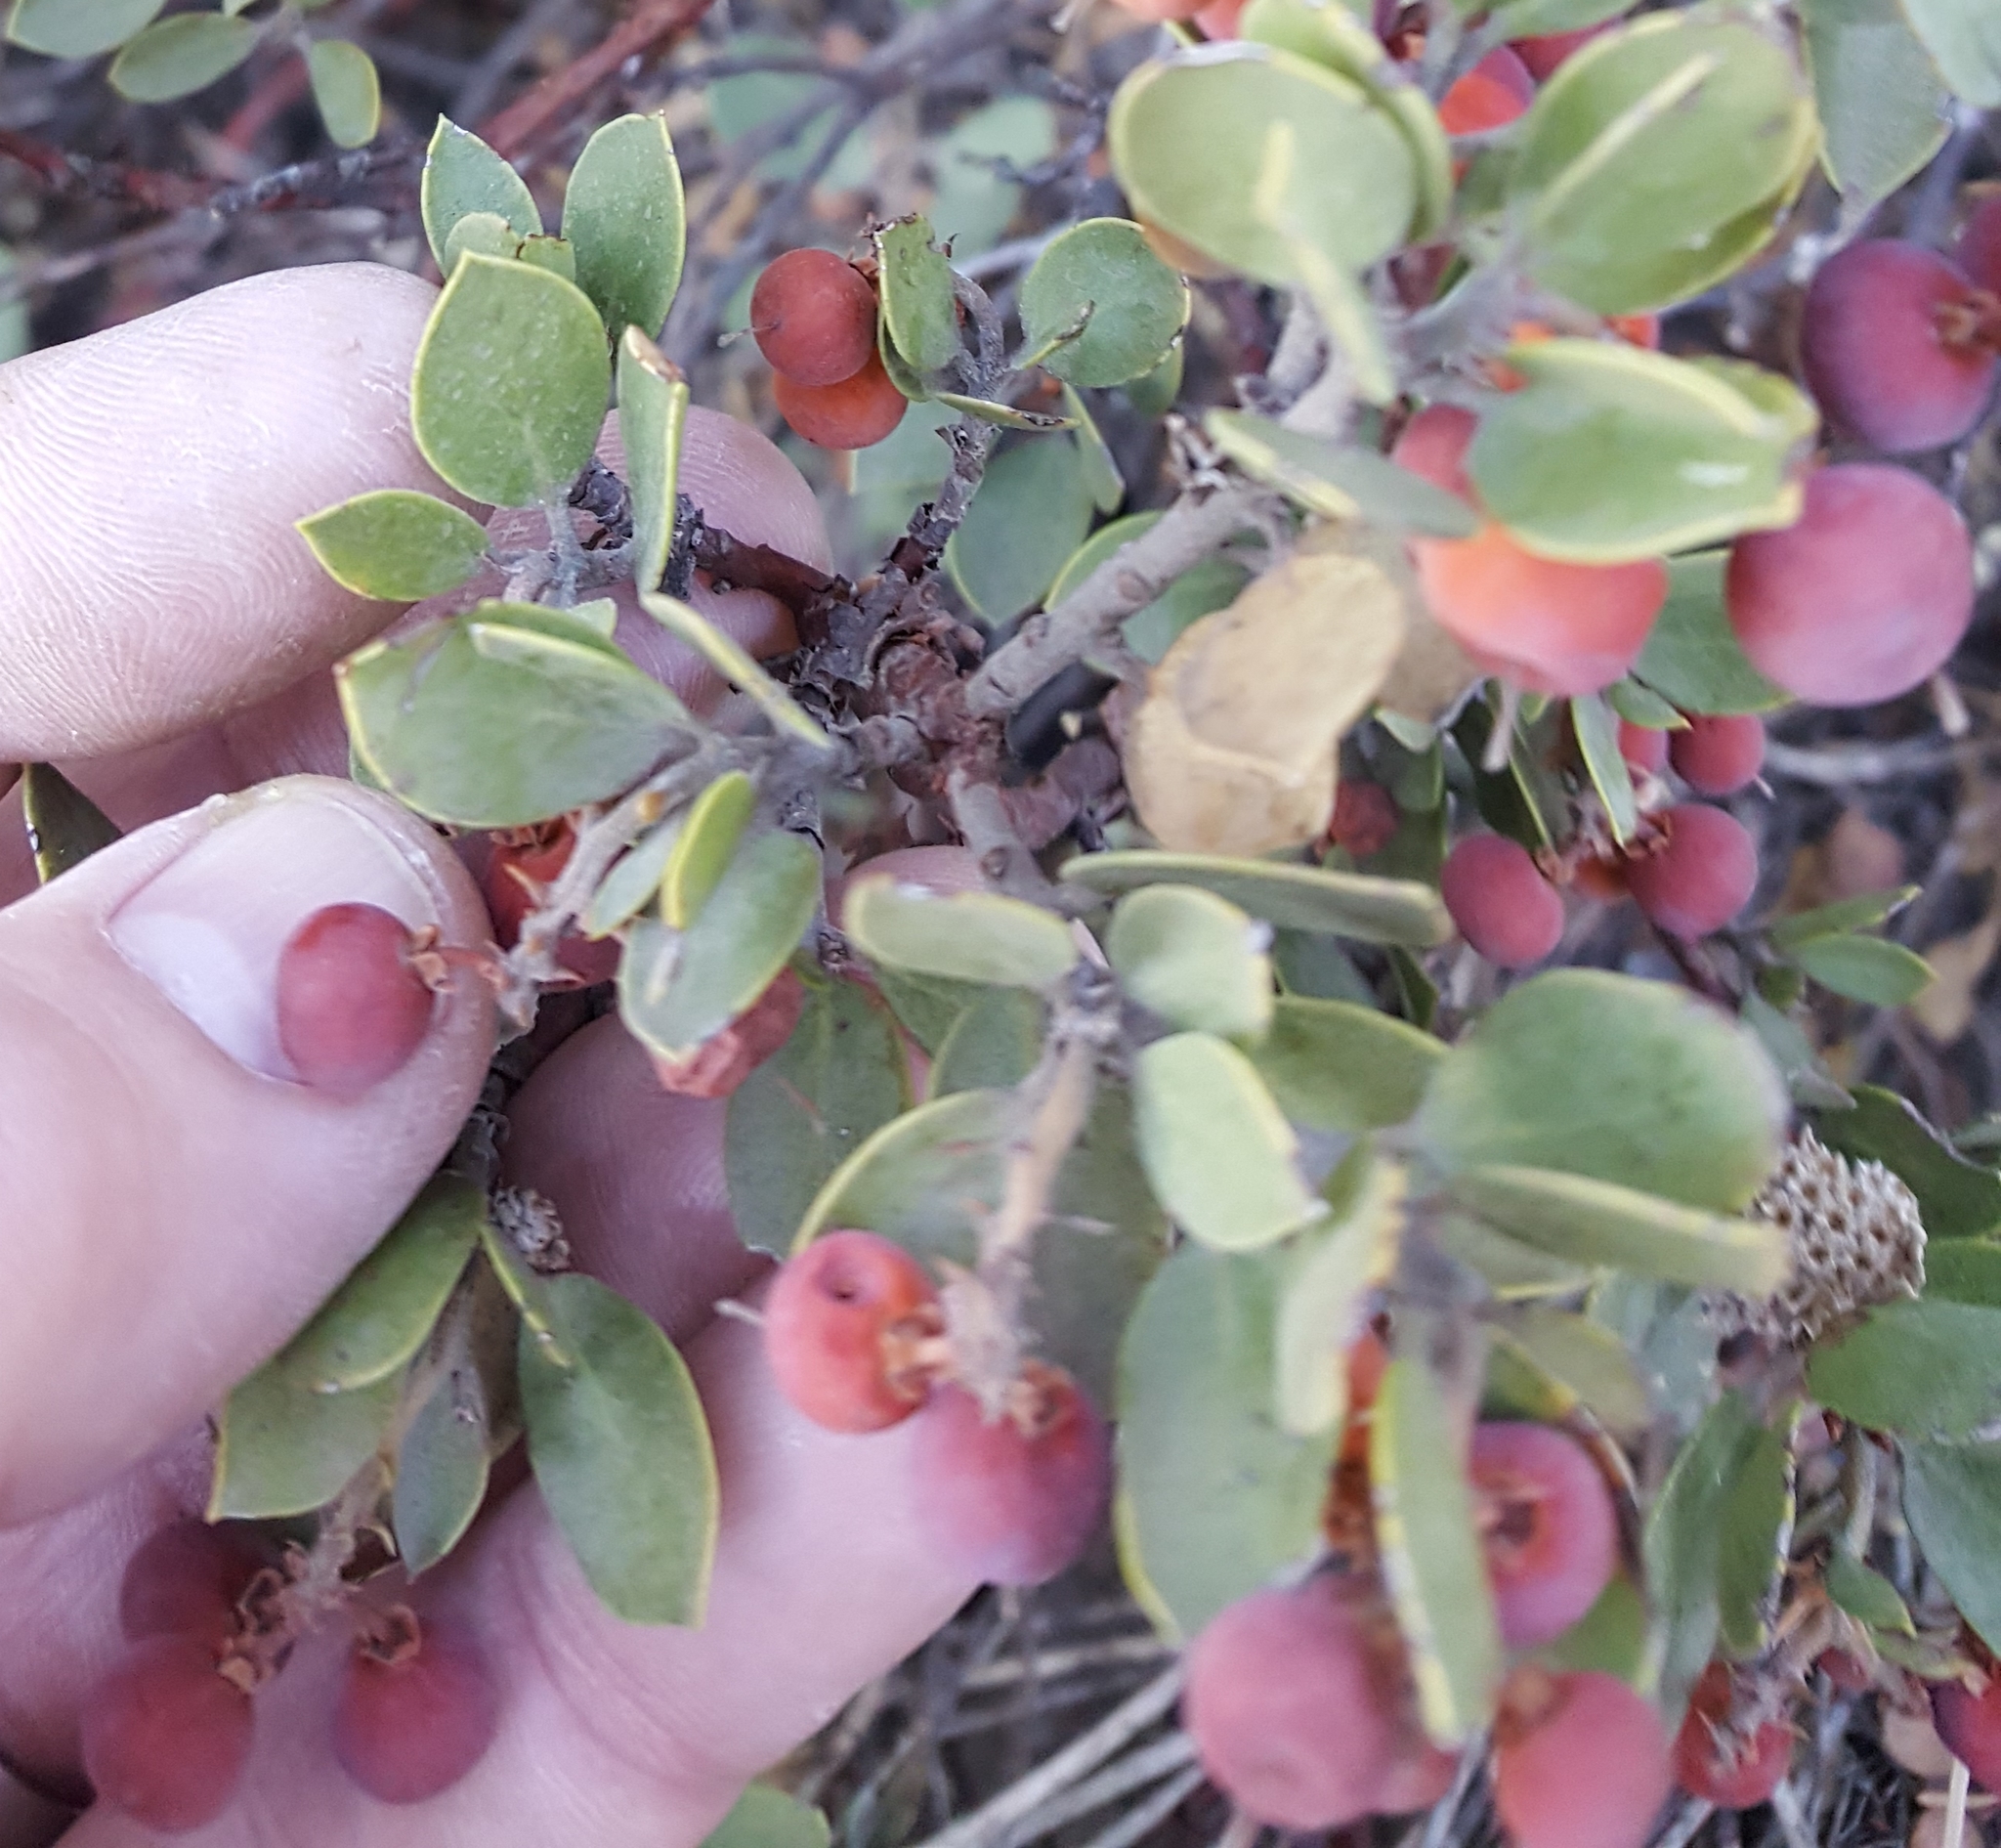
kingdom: Plantae
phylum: Tracheophyta
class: Magnoliopsida
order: Ericales
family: Ericaceae
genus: Arctostaphylos
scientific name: Arctostaphylos nevadensis
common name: Pinemat manzanita
